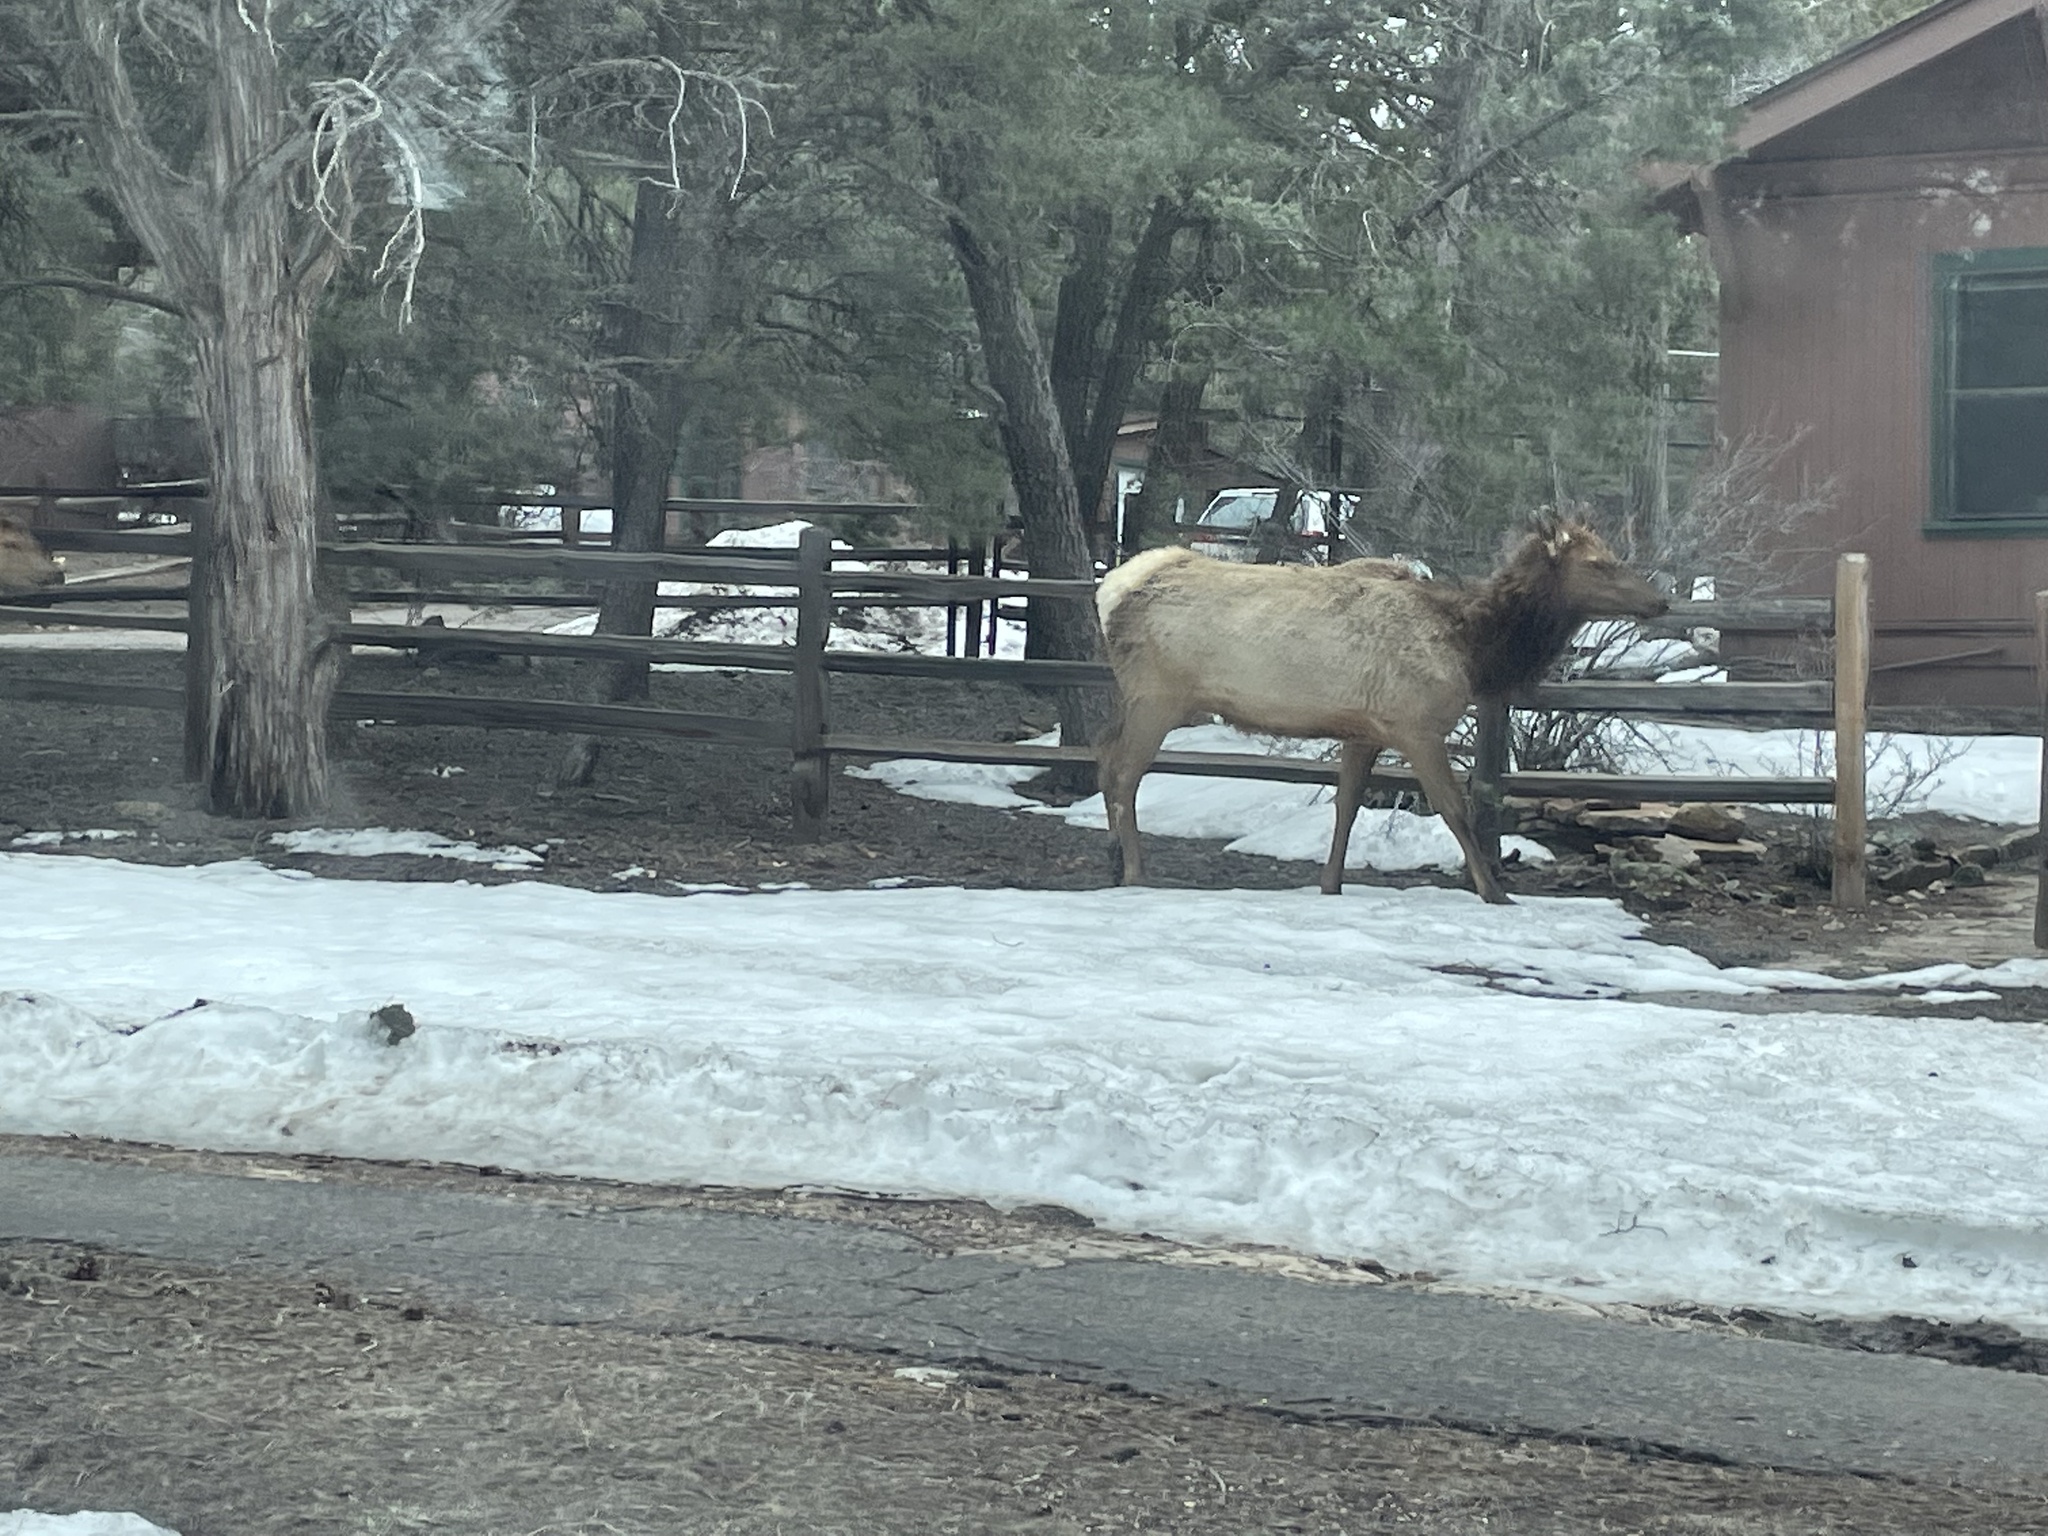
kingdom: Animalia
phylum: Chordata
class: Mammalia
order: Artiodactyla
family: Cervidae
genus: Cervus
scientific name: Cervus elaphus
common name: Red deer
